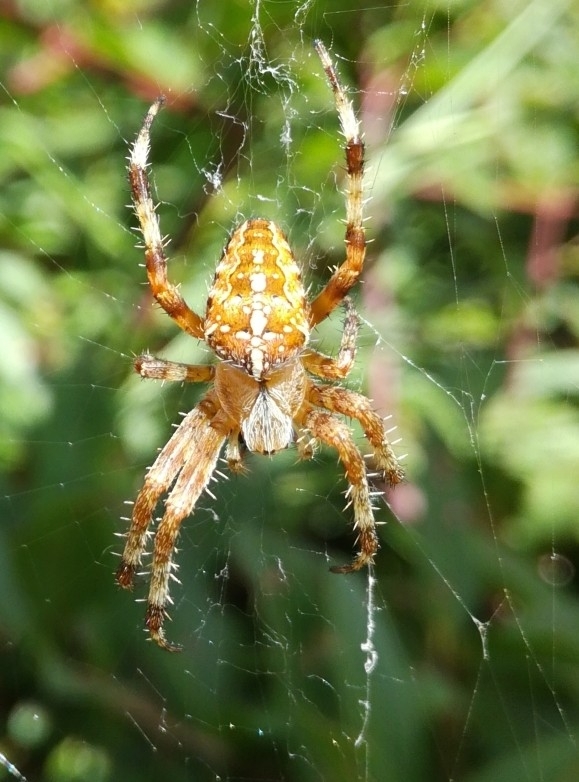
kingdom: Animalia
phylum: Arthropoda
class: Arachnida
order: Araneae
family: Araneidae
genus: Araneus
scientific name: Araneus diadematus
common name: Cross orbweaver
